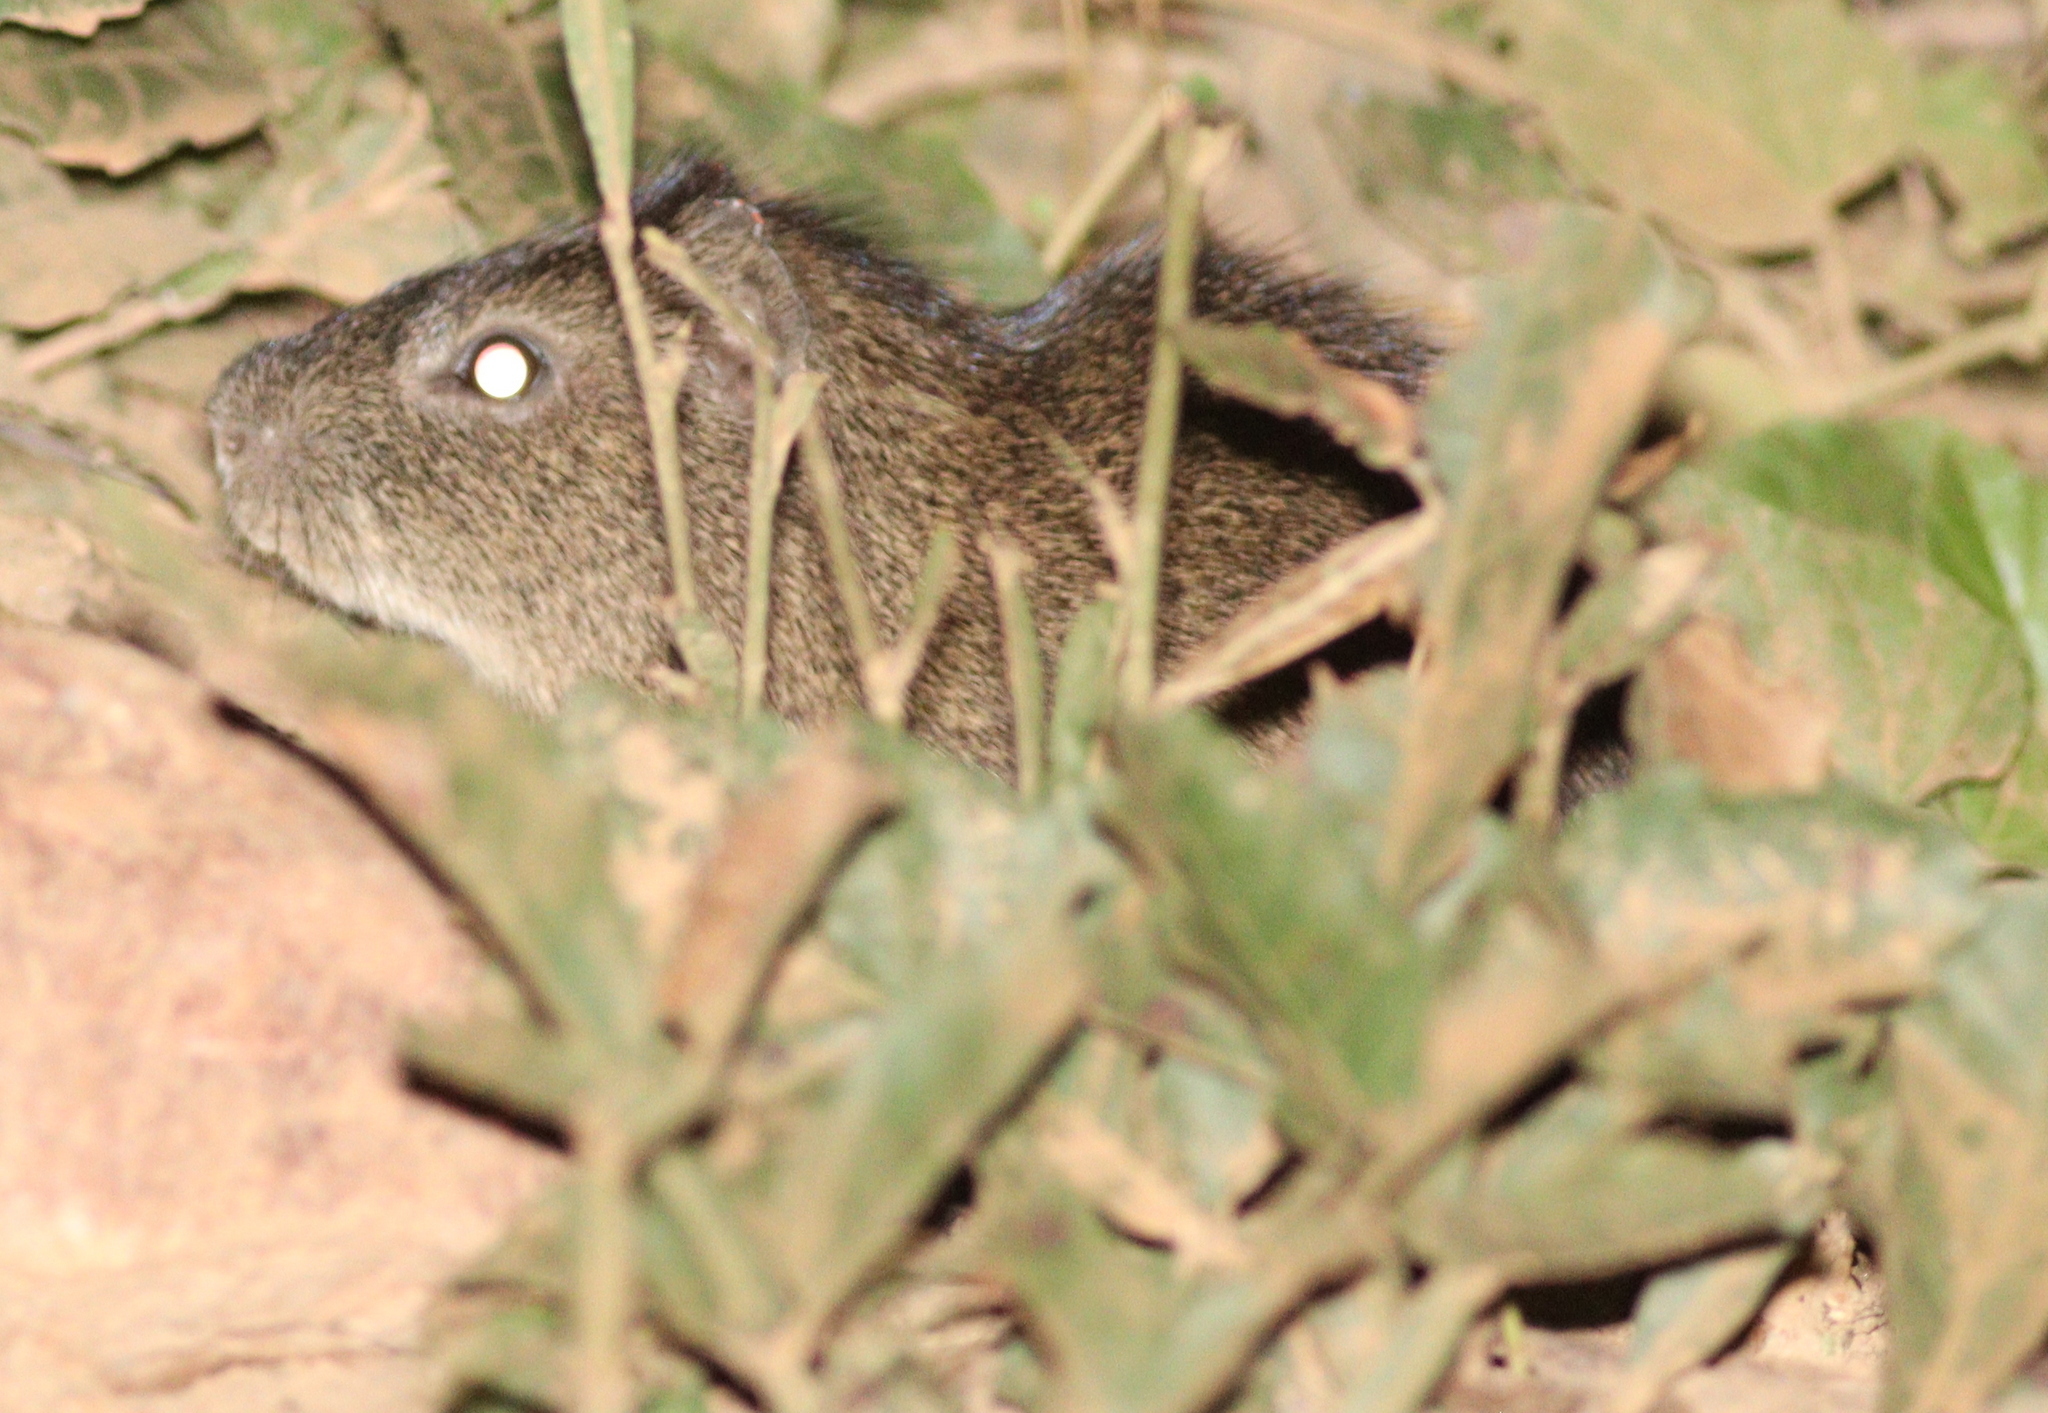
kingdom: Animalia
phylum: Chordata
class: Mammalia
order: Rodentia
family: Caviidae
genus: Cavia
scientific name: Cavia aperea
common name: Brazilian guinea pig
